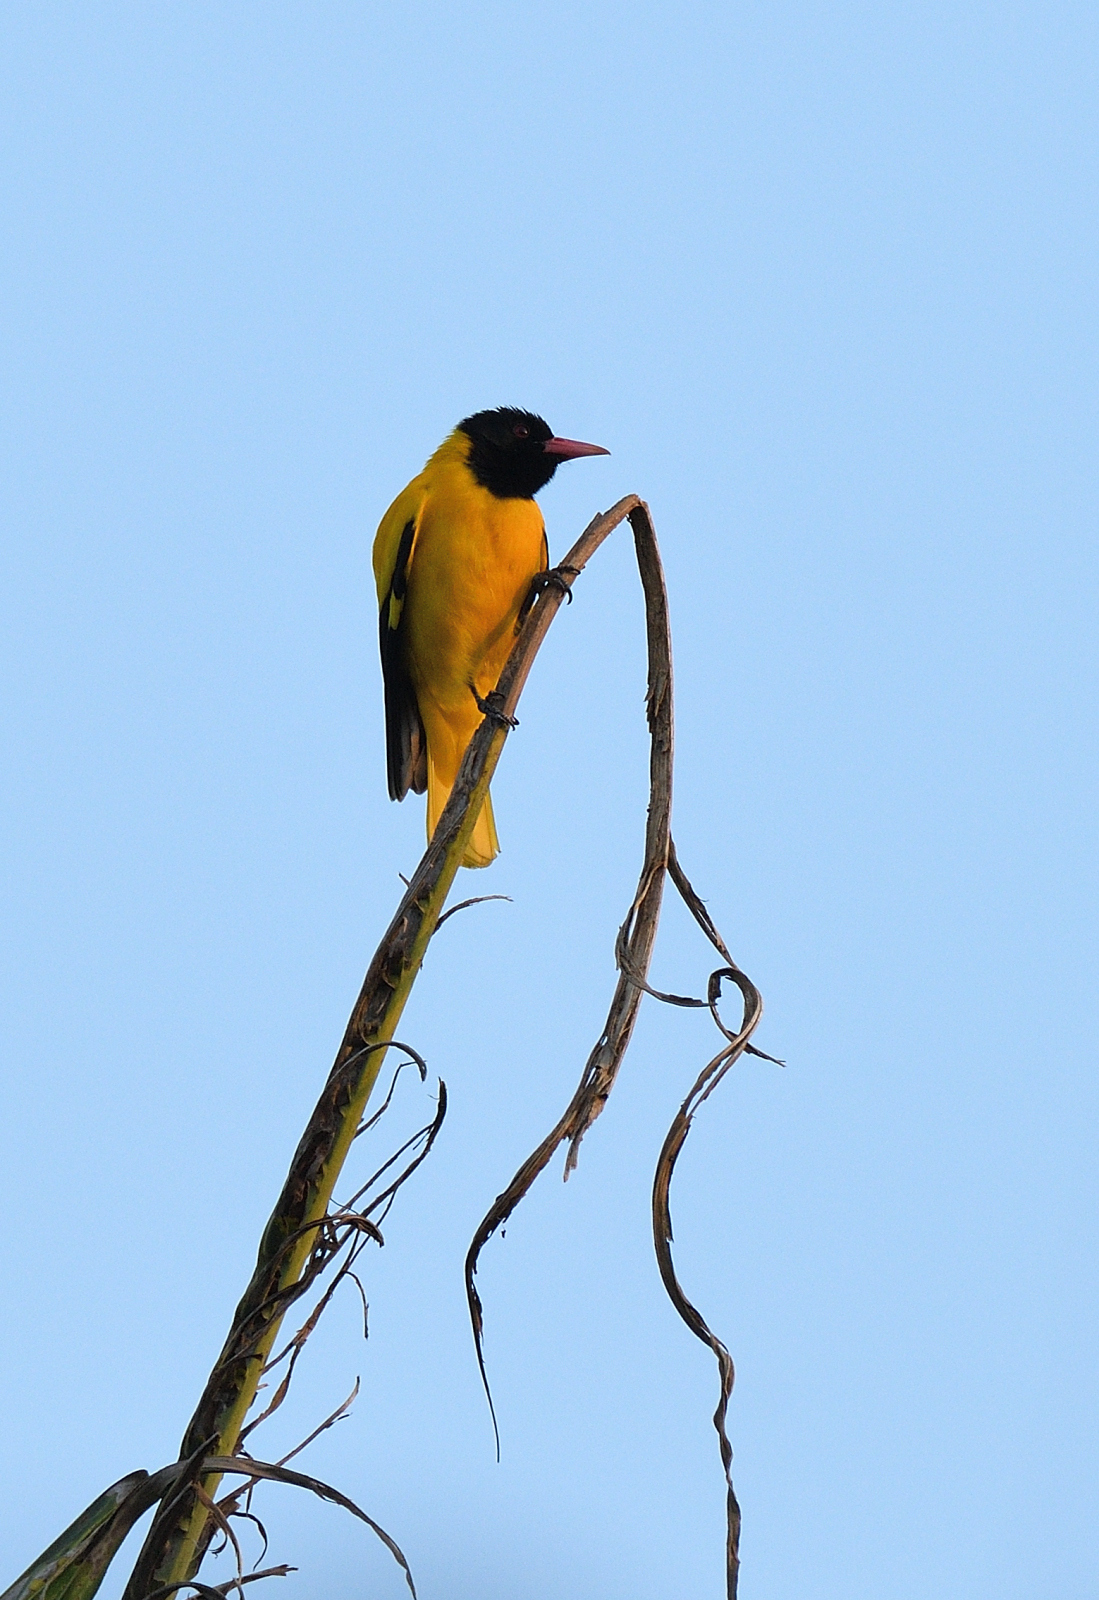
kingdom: Animalia
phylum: Chordata
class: Aves
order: Passeriformes
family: Oriolidae
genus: Oriolus
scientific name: Oriolus xanthornus
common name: Black-hooded oriole
